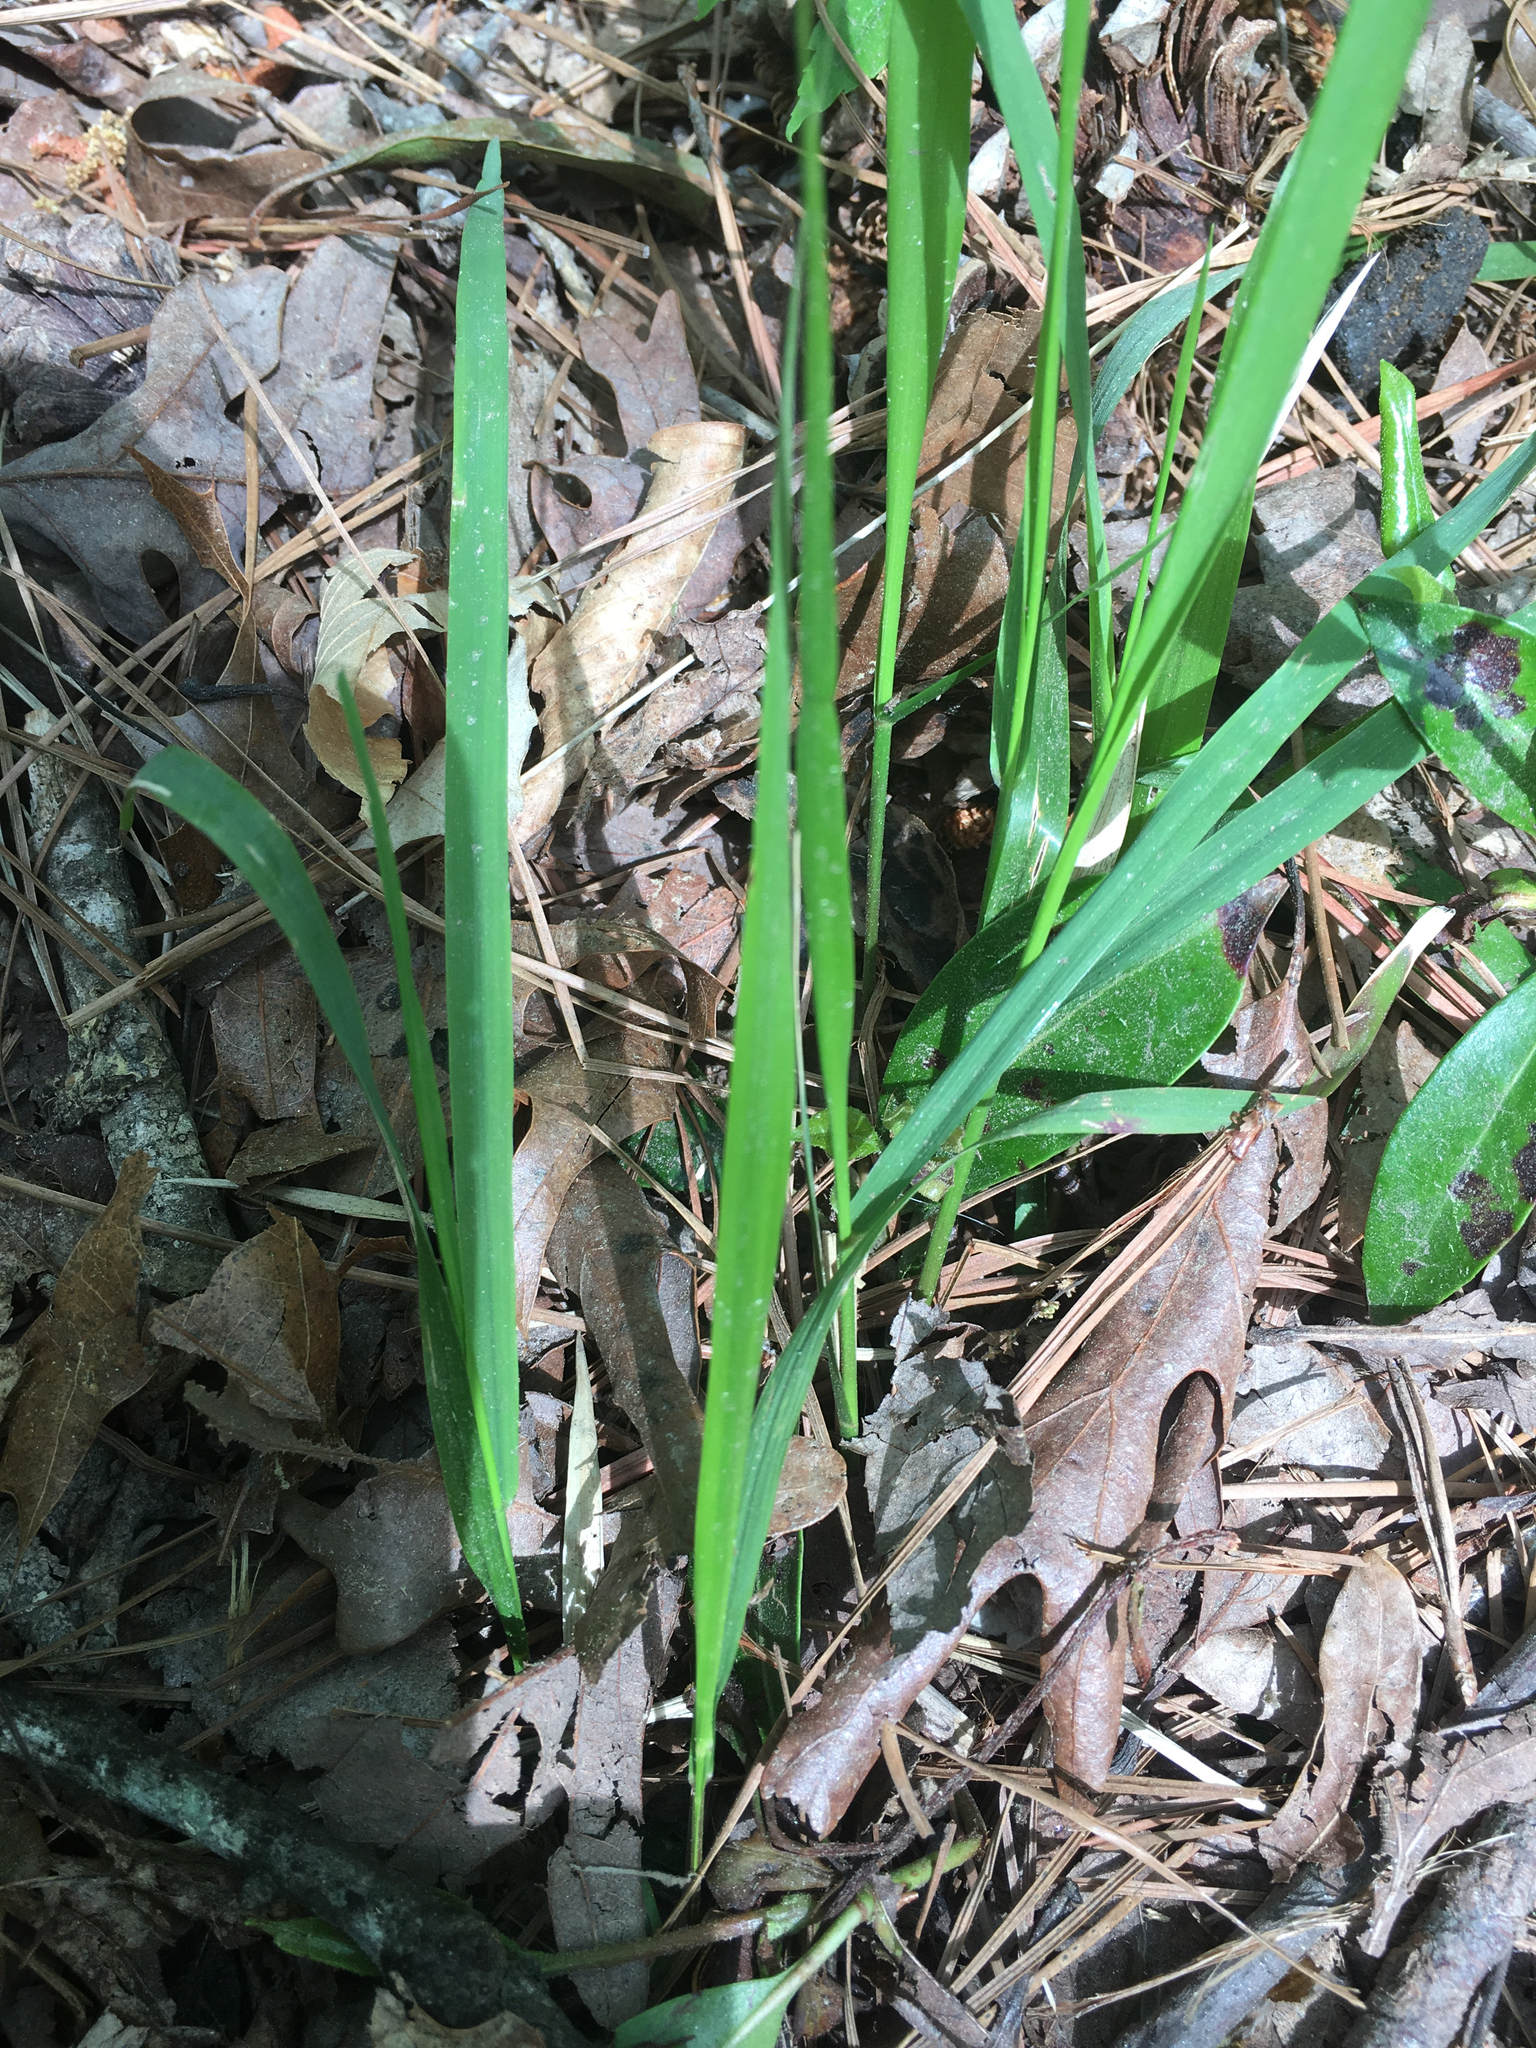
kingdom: Plantae
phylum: Tracheophyta
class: Liliopsida
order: Poales
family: Poaceae
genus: Chasmanthium
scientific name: Chasmanthium laxum
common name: Slender chasmanthium
